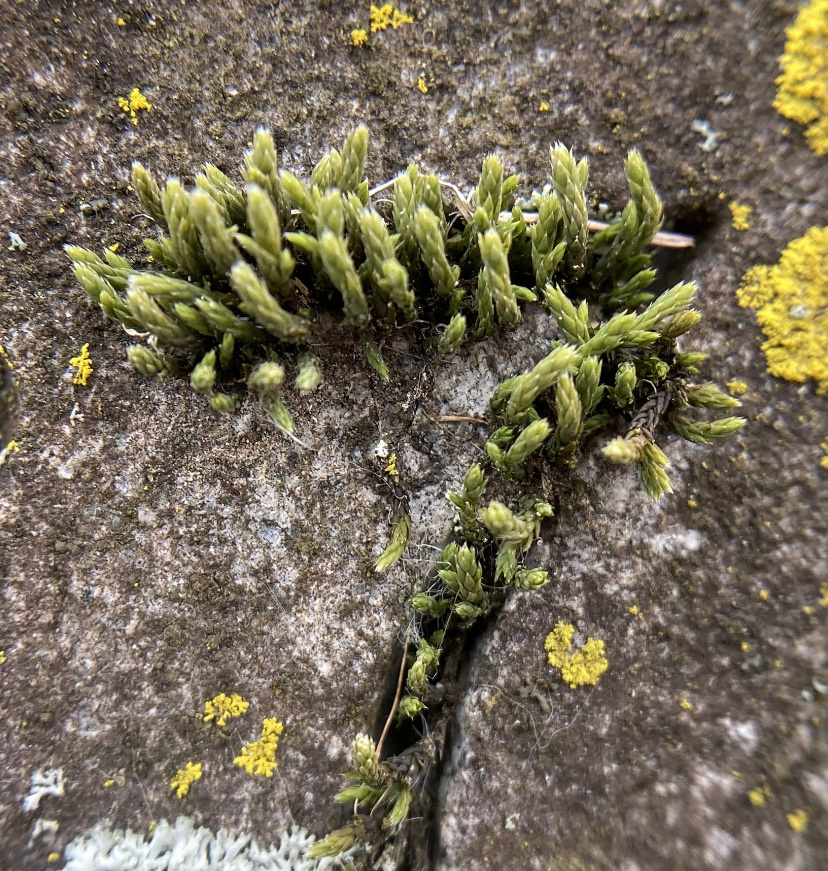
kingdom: Plantae
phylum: Bryophyta
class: Bryopsida
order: Hedwigiales
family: Hedwigiaceae
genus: Hedwigia
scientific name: Hedwigia ciliata
